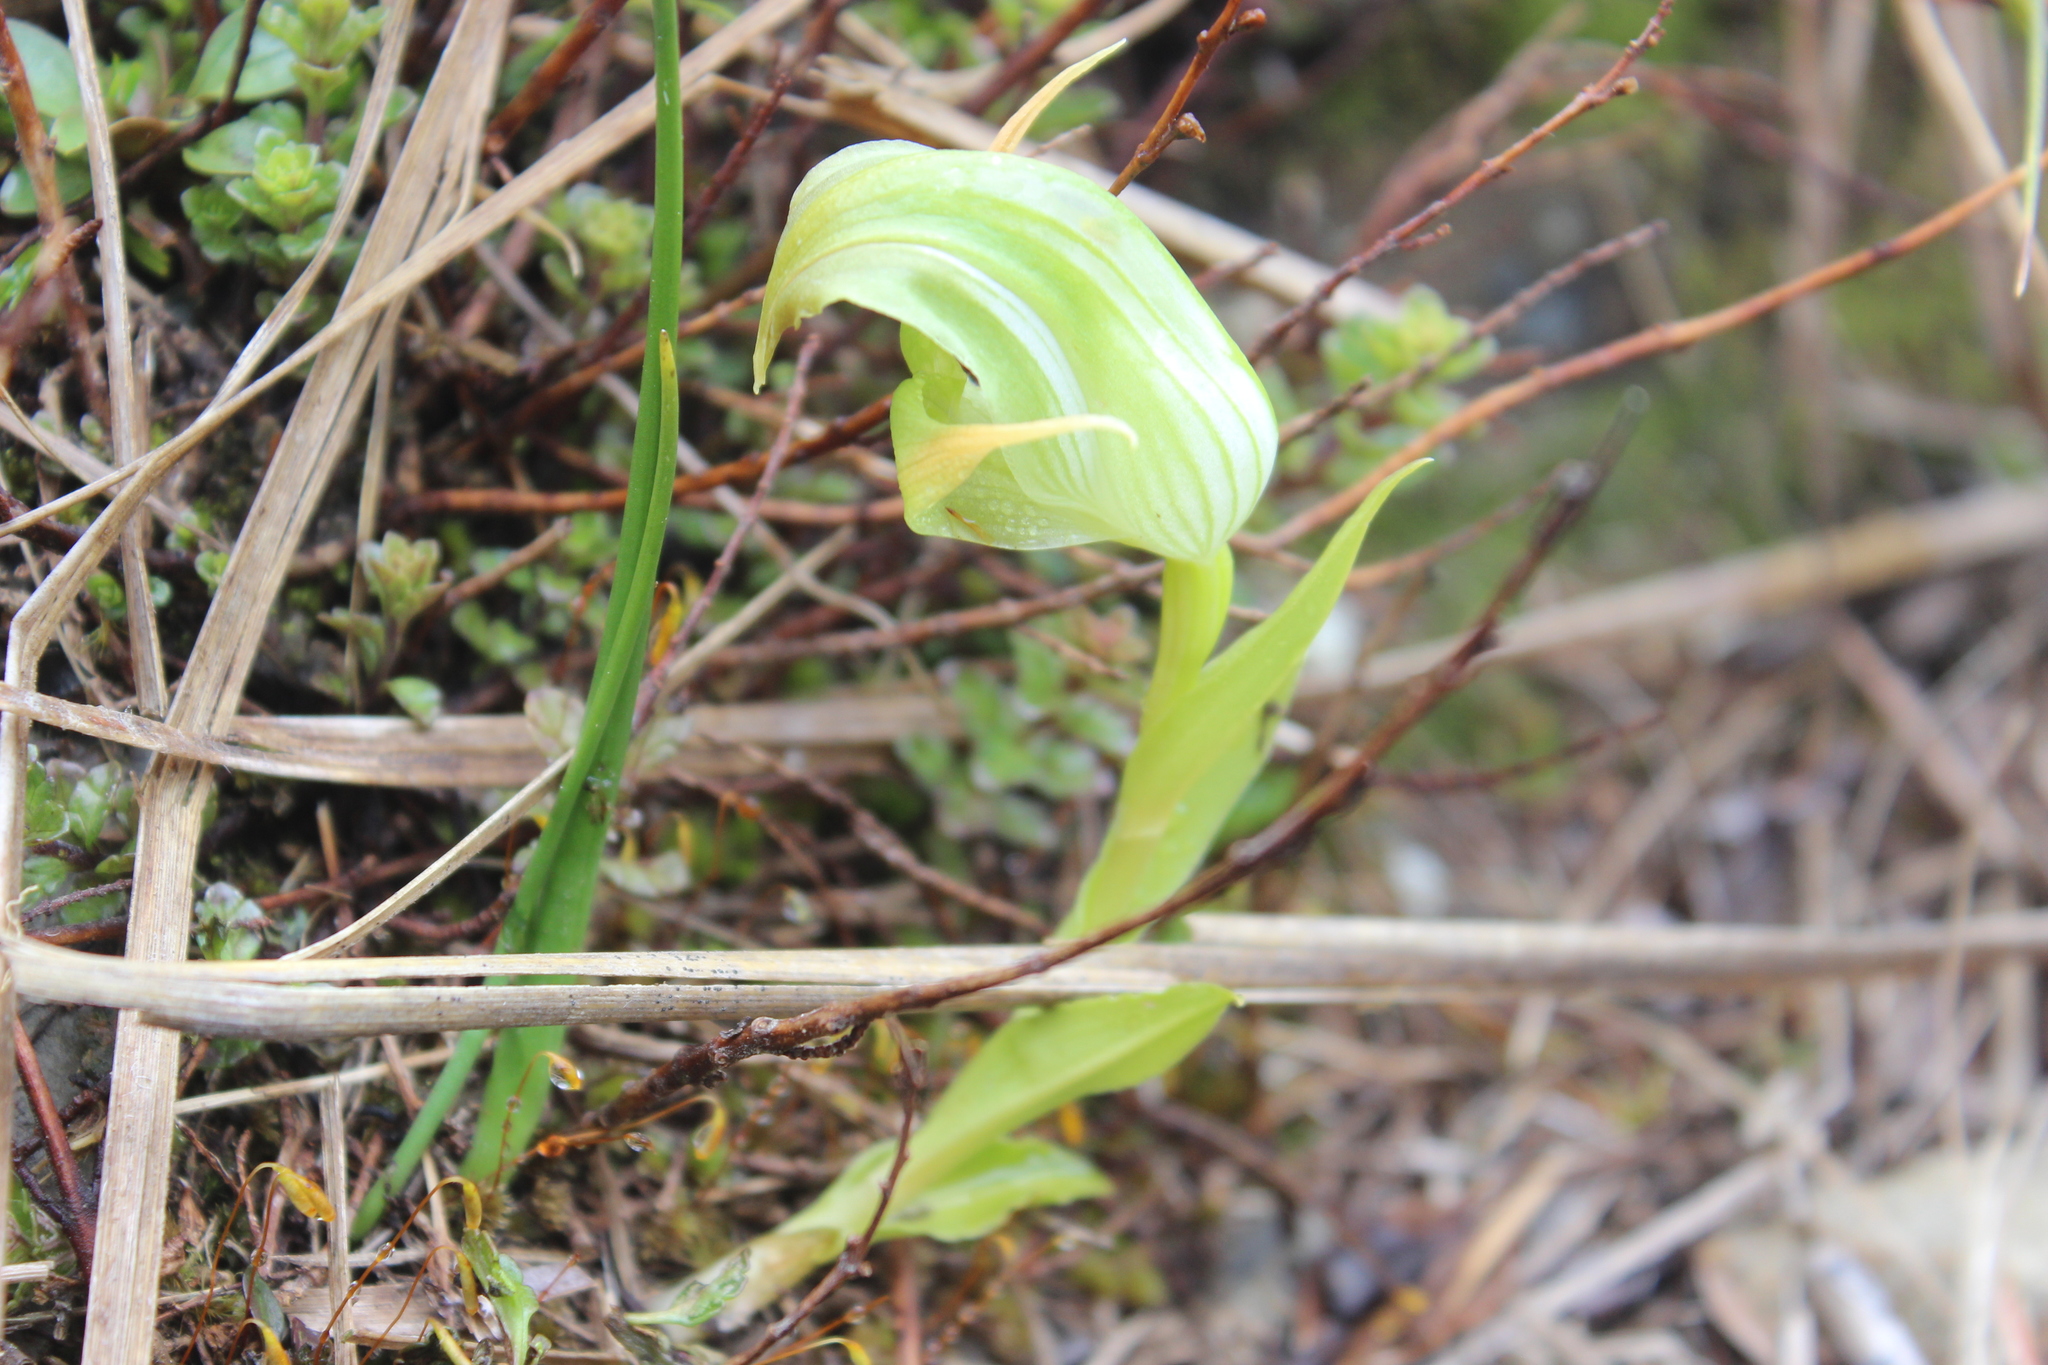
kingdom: Plantae
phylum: Tracheophyta
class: Liliopsida
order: Asparagales
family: Orchidaceae
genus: Pterostylis
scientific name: Pterostylis patens
